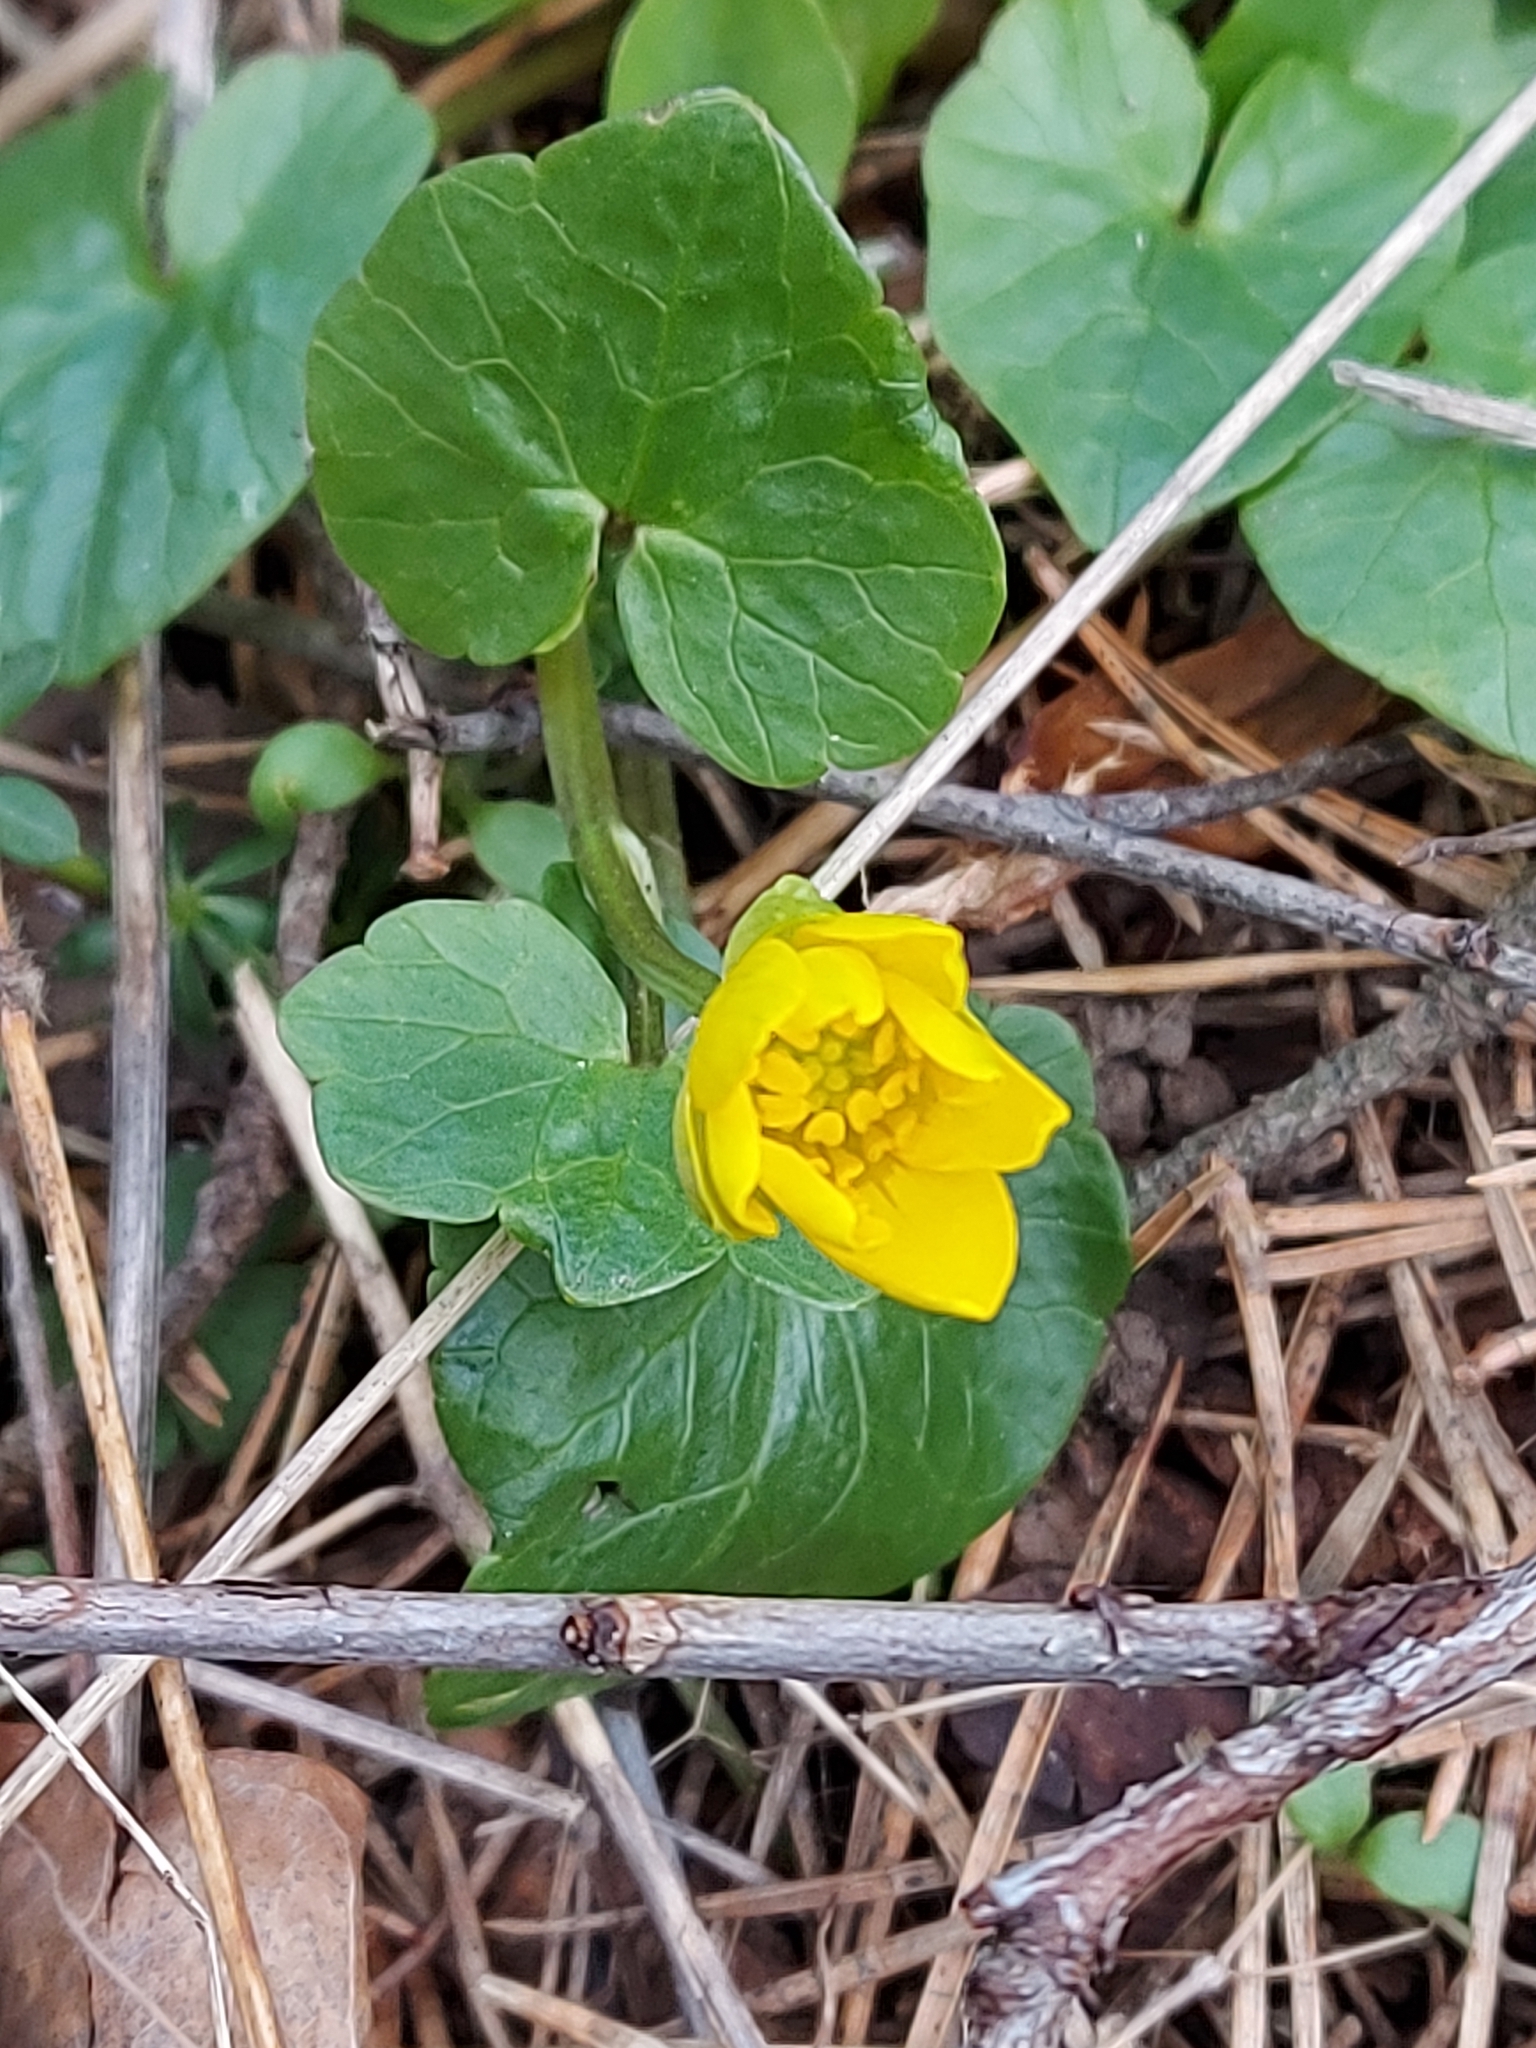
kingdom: Plantae
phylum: Tracheophyta
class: Magnoliopsida
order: Ranunculales
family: Ranunculaceae
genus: Ficaria
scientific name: Ficaria verna
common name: Lesser celandine
